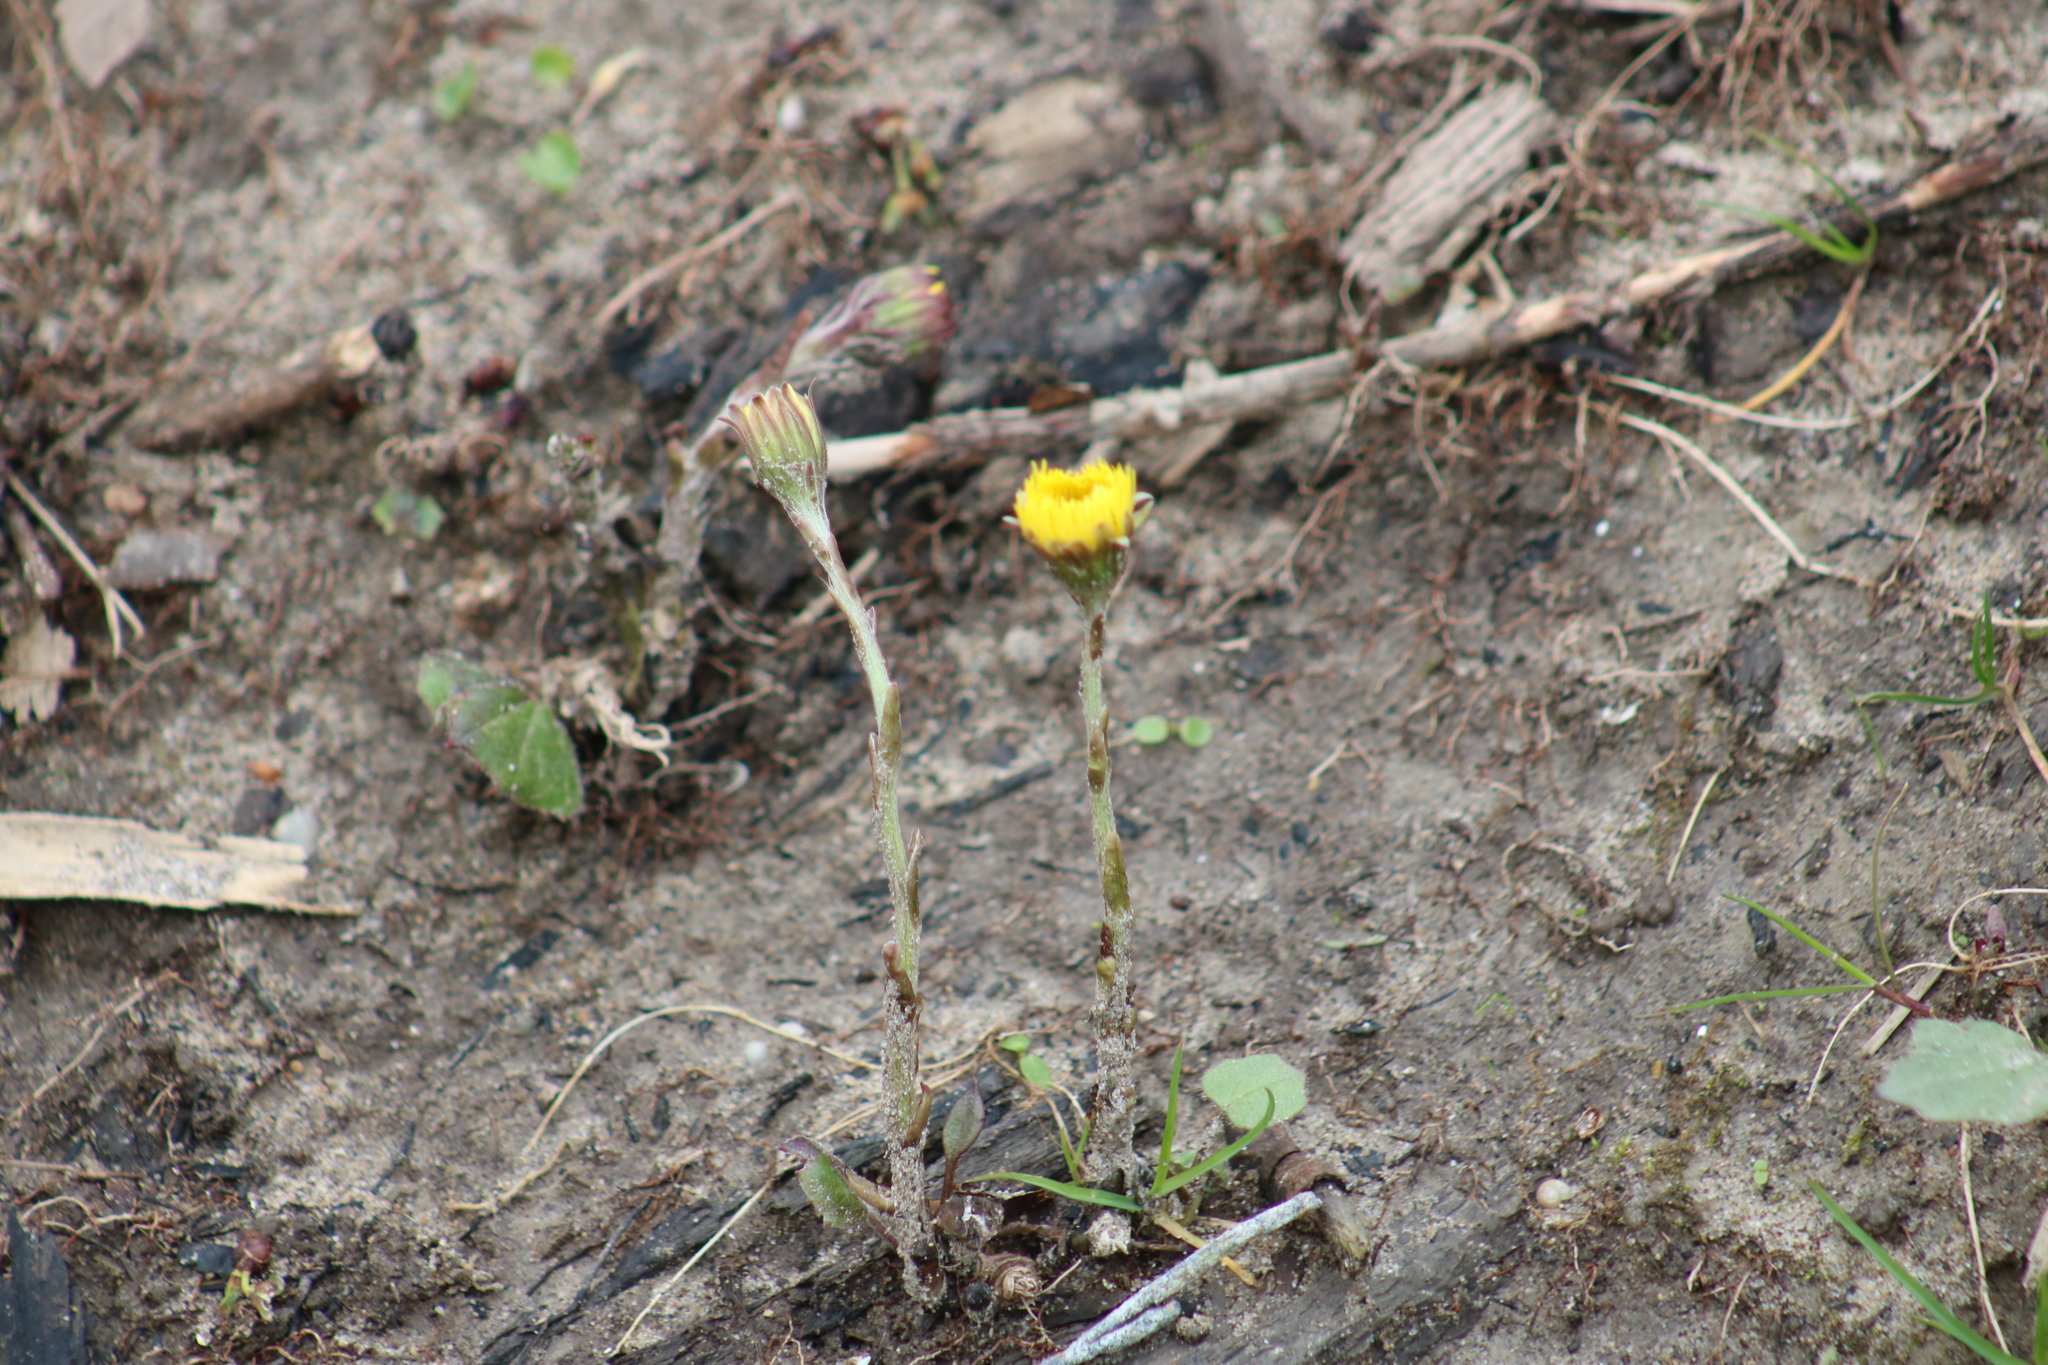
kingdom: Plantae
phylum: Tracheophyta
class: Magnoliopsida
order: Asterales
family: Asteraceae
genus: Tussilago
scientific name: Tussilago farfara
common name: Coltsfoot
